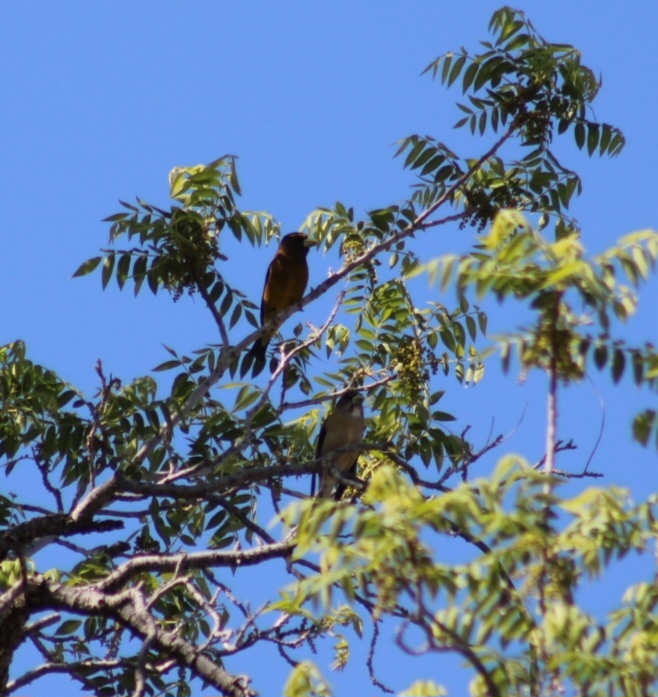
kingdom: Animalia
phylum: Chordata
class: Aves
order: Passeriformes
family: Fringillidae
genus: Hesperiphona
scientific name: Hesperiphona vespertina
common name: Evening grosbeak
